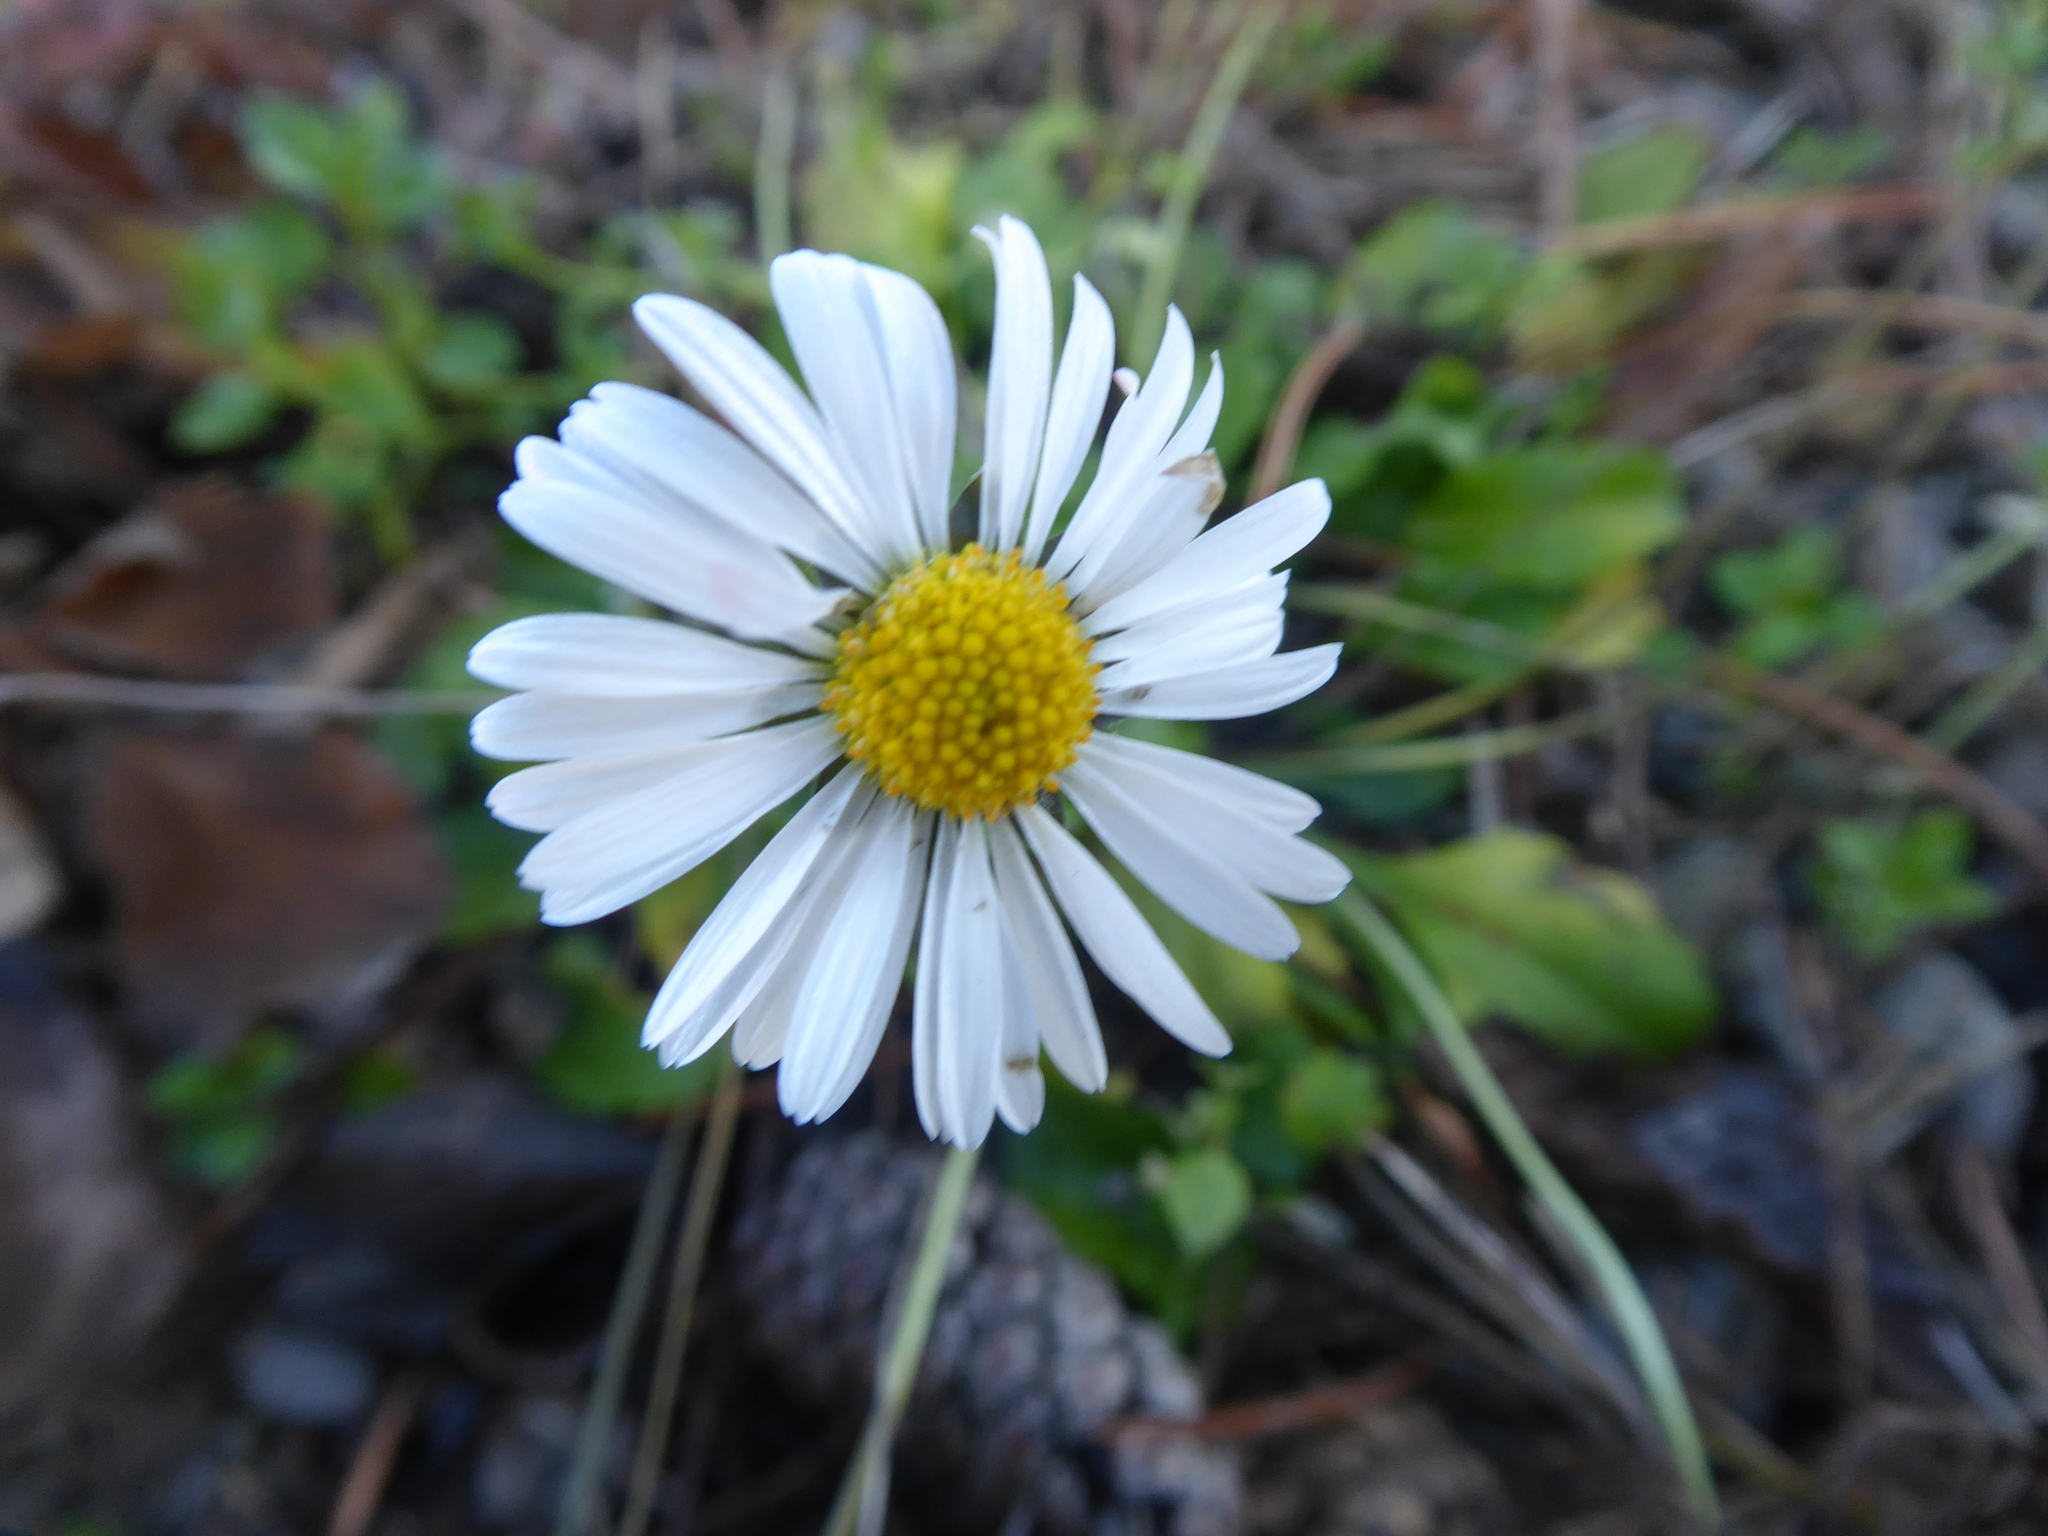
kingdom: Plantae
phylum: Tracheophyta
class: Magnoliopsida
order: Asterales
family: Asteraceae
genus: Bellis
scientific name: Bellis perennis
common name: Lawndaisy
